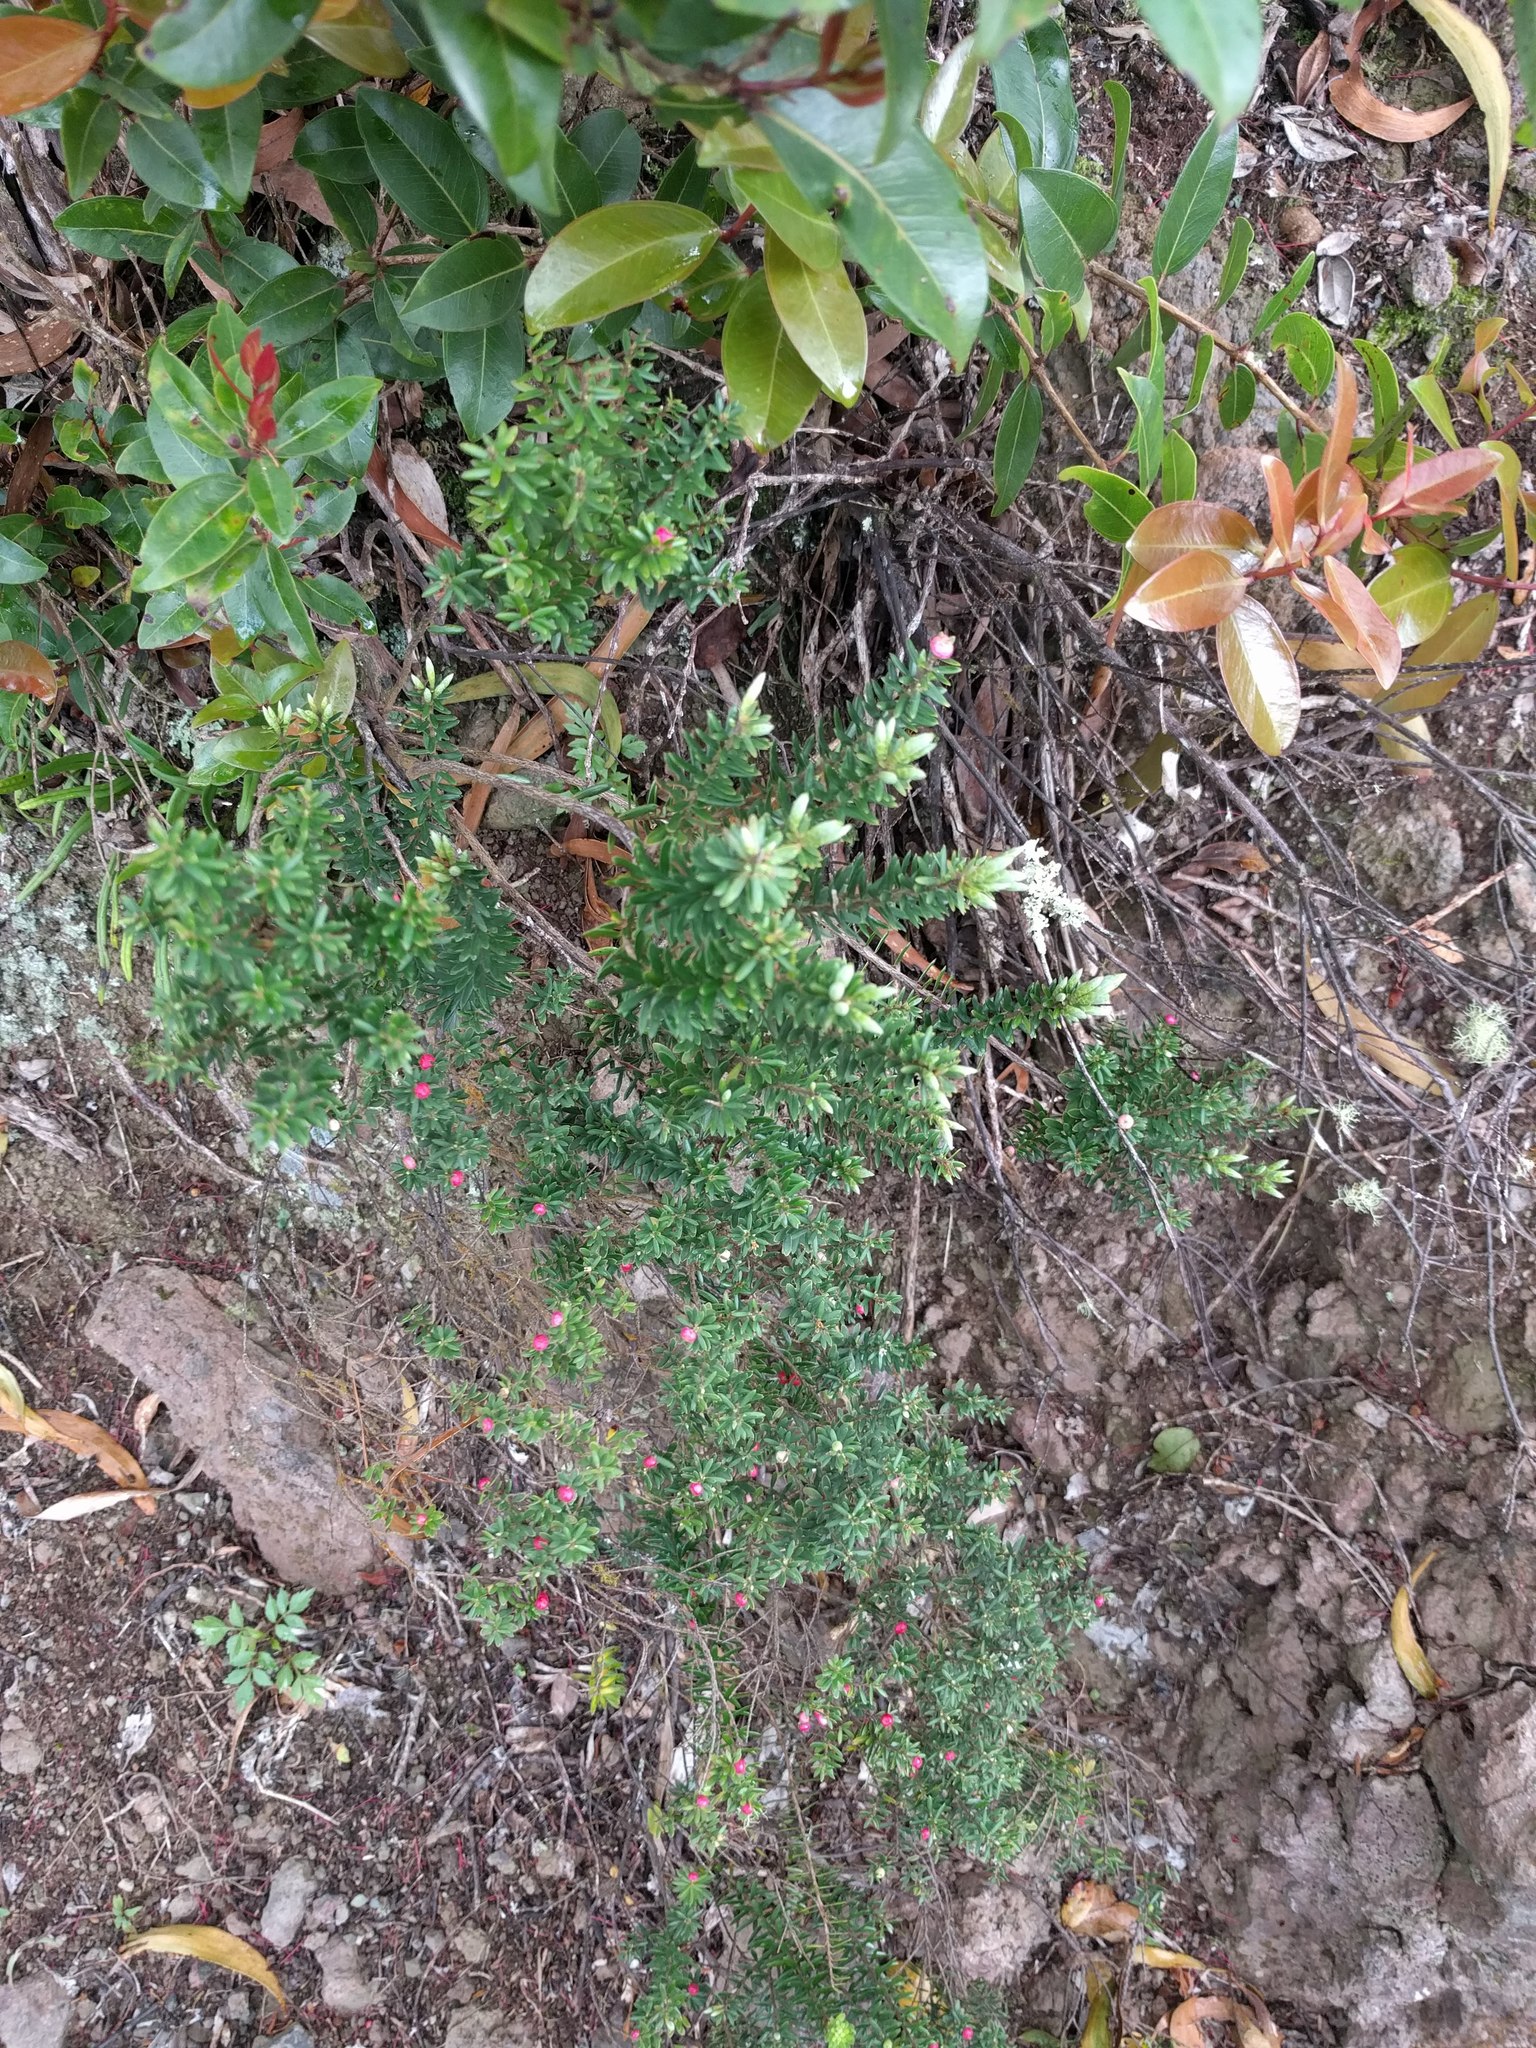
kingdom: Plantae
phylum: Tracheophyta
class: Magnoliopsida
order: Ericales
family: Ericaceae
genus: Leptecophylla
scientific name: Leptecophylla tameiameiae
